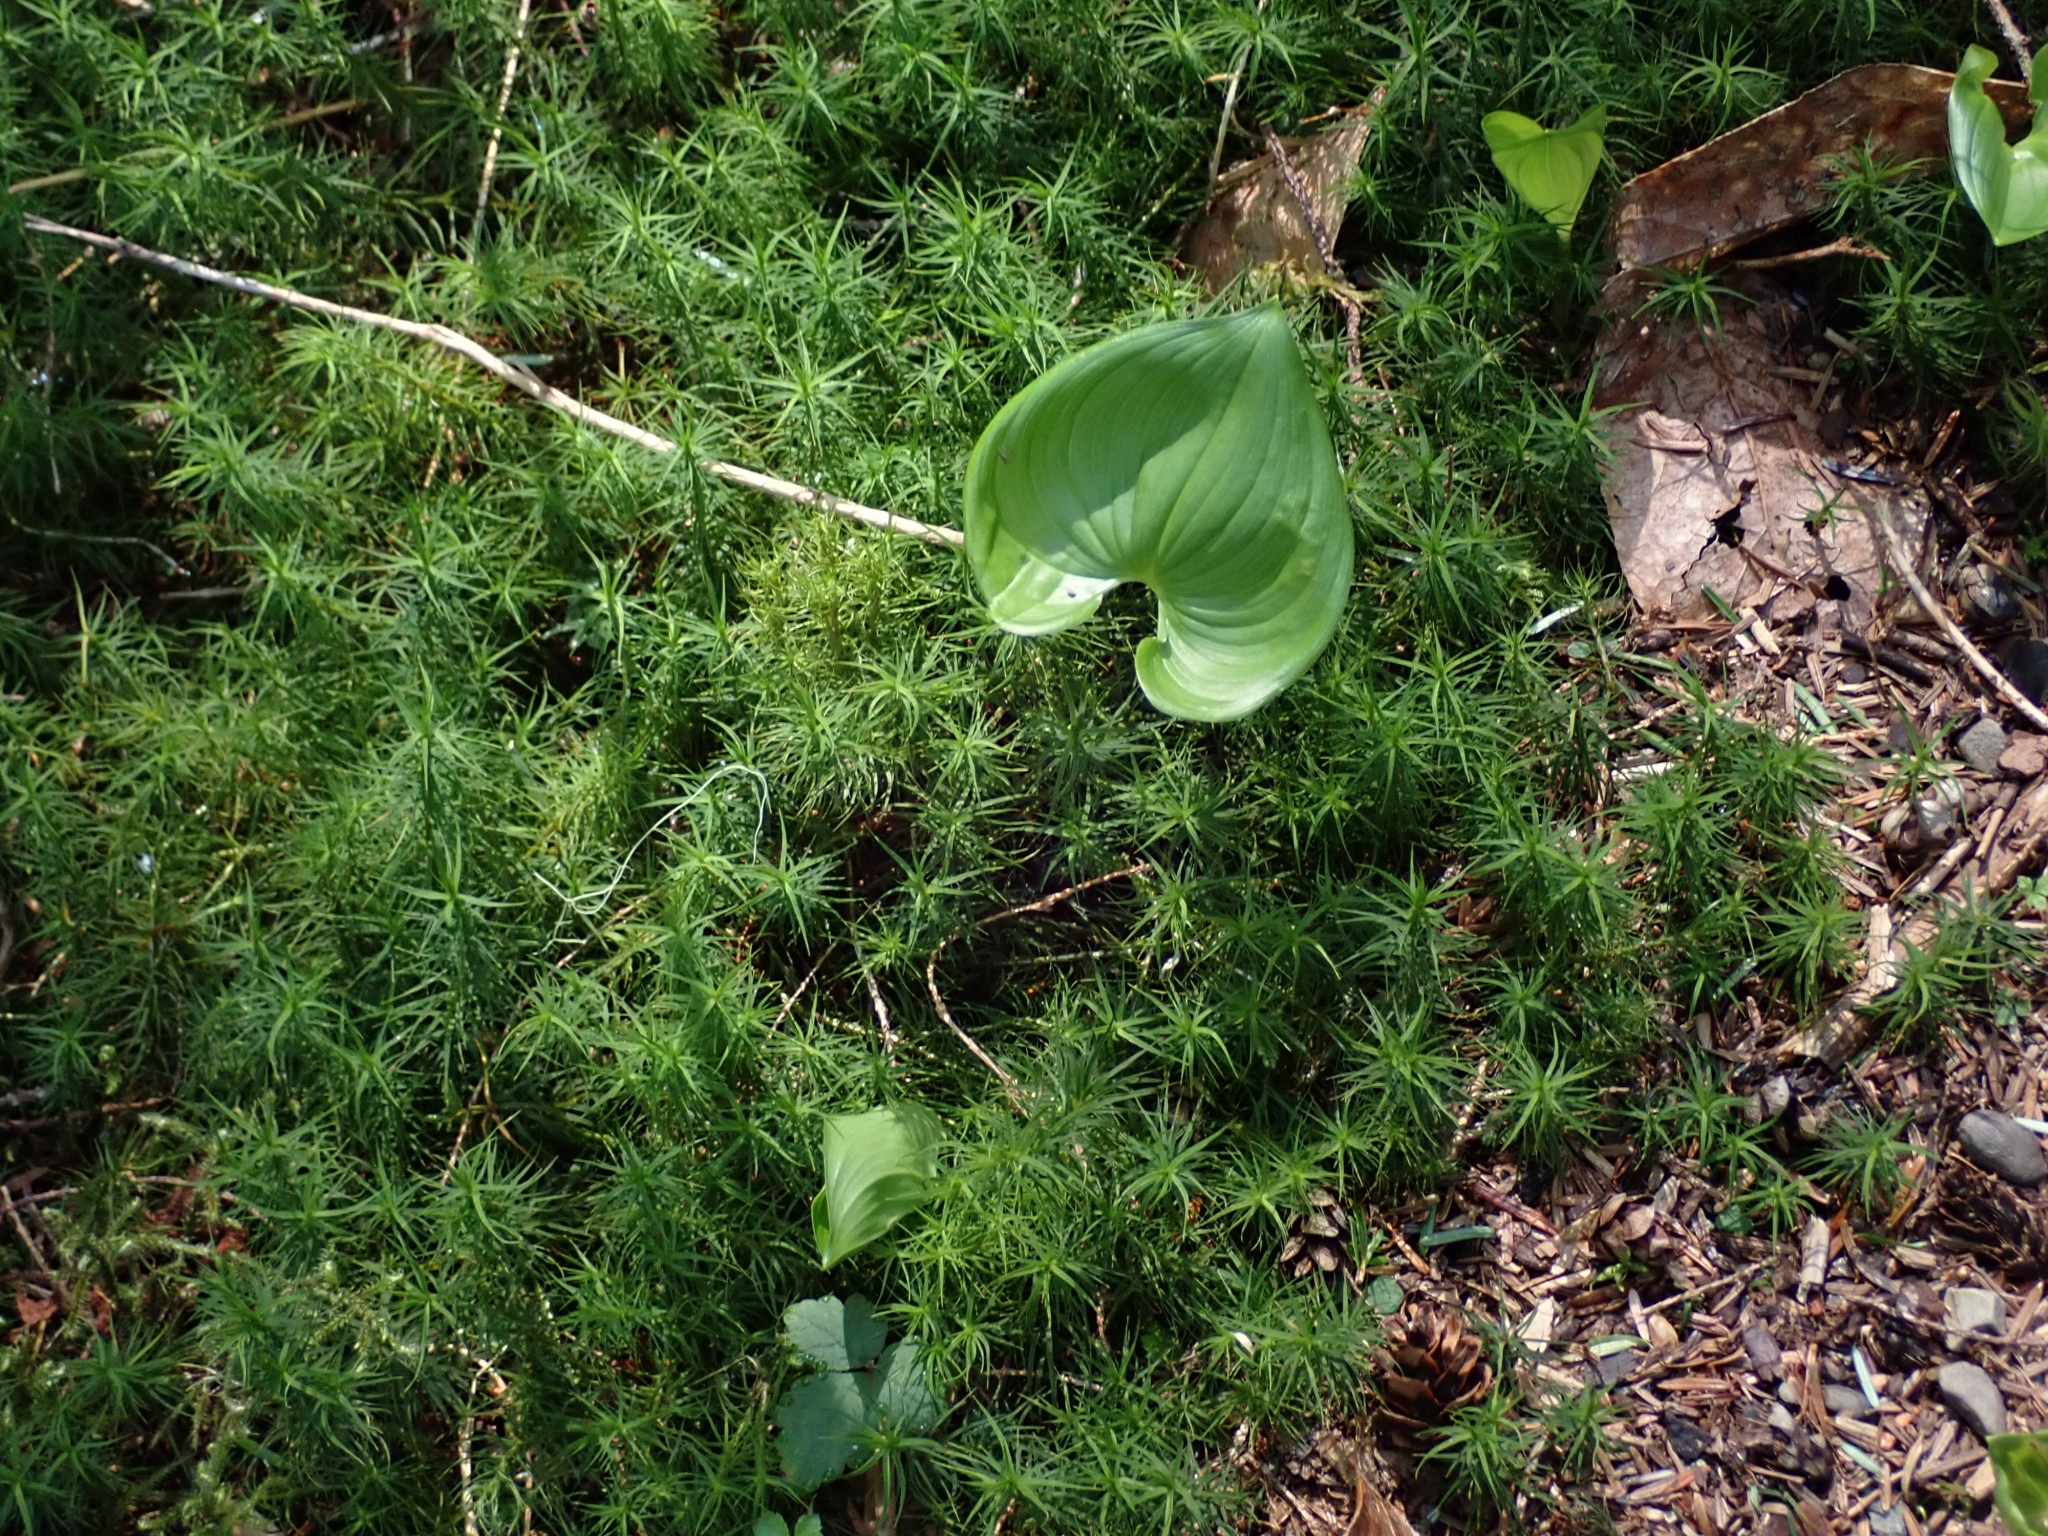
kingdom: Plantae
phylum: Tracheophyta
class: Liliopsida
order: Asparagales
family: Asparagaceae
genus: Maianthemum
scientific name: Maianthemum dilatatum
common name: False lily-of-the-valley
